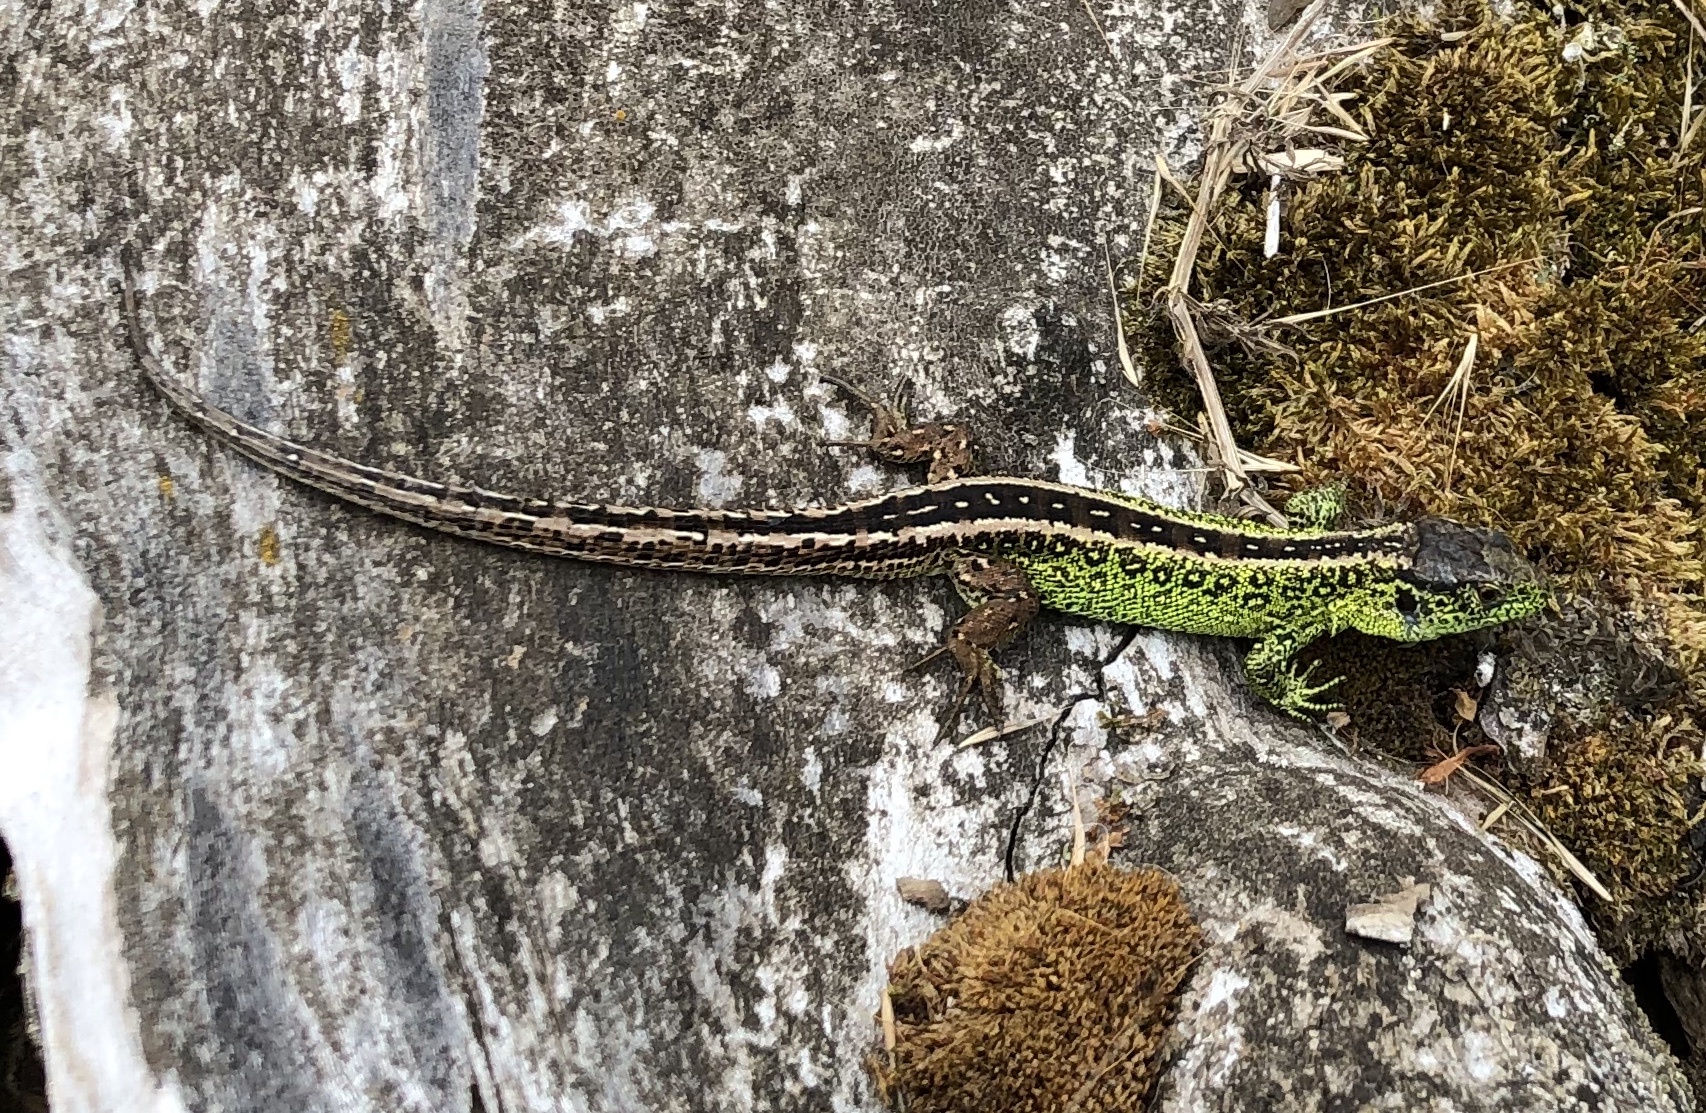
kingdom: Animalia
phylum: Chordata
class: Squamata
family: Lacertidae
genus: Lacerta
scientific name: Lacerta agilis
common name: Sand lizard
